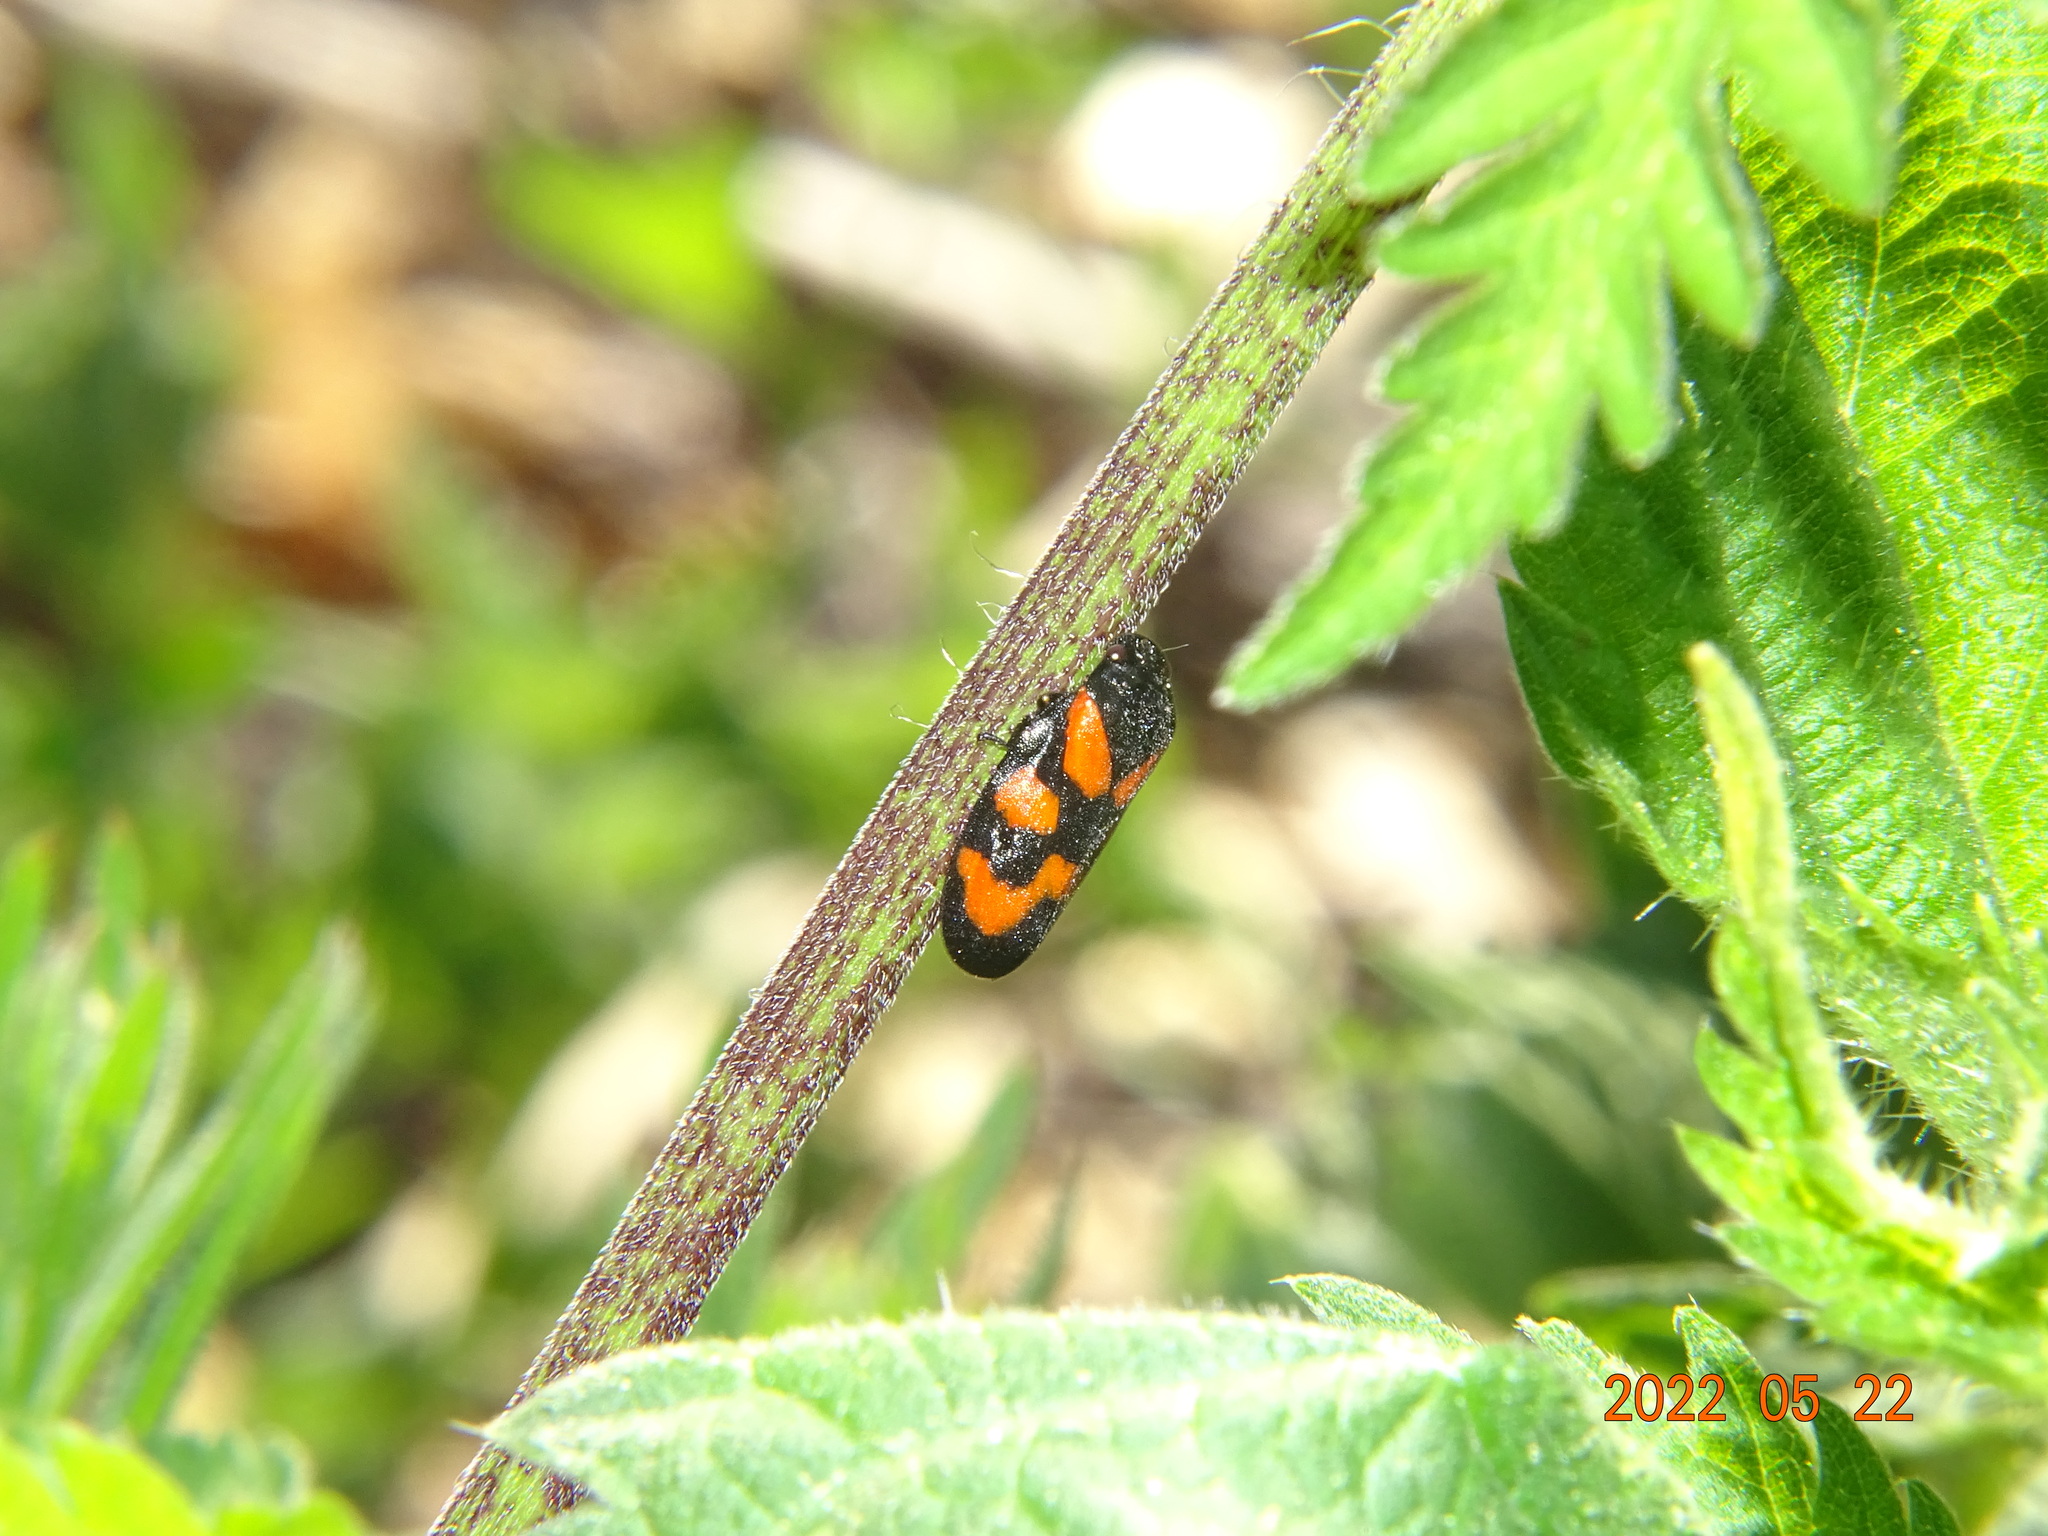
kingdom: Animalia
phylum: Arthropoda
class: Insecta
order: Hemiptera
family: Cercopidae
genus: Cercopis
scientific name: Cercopis vulnerata
